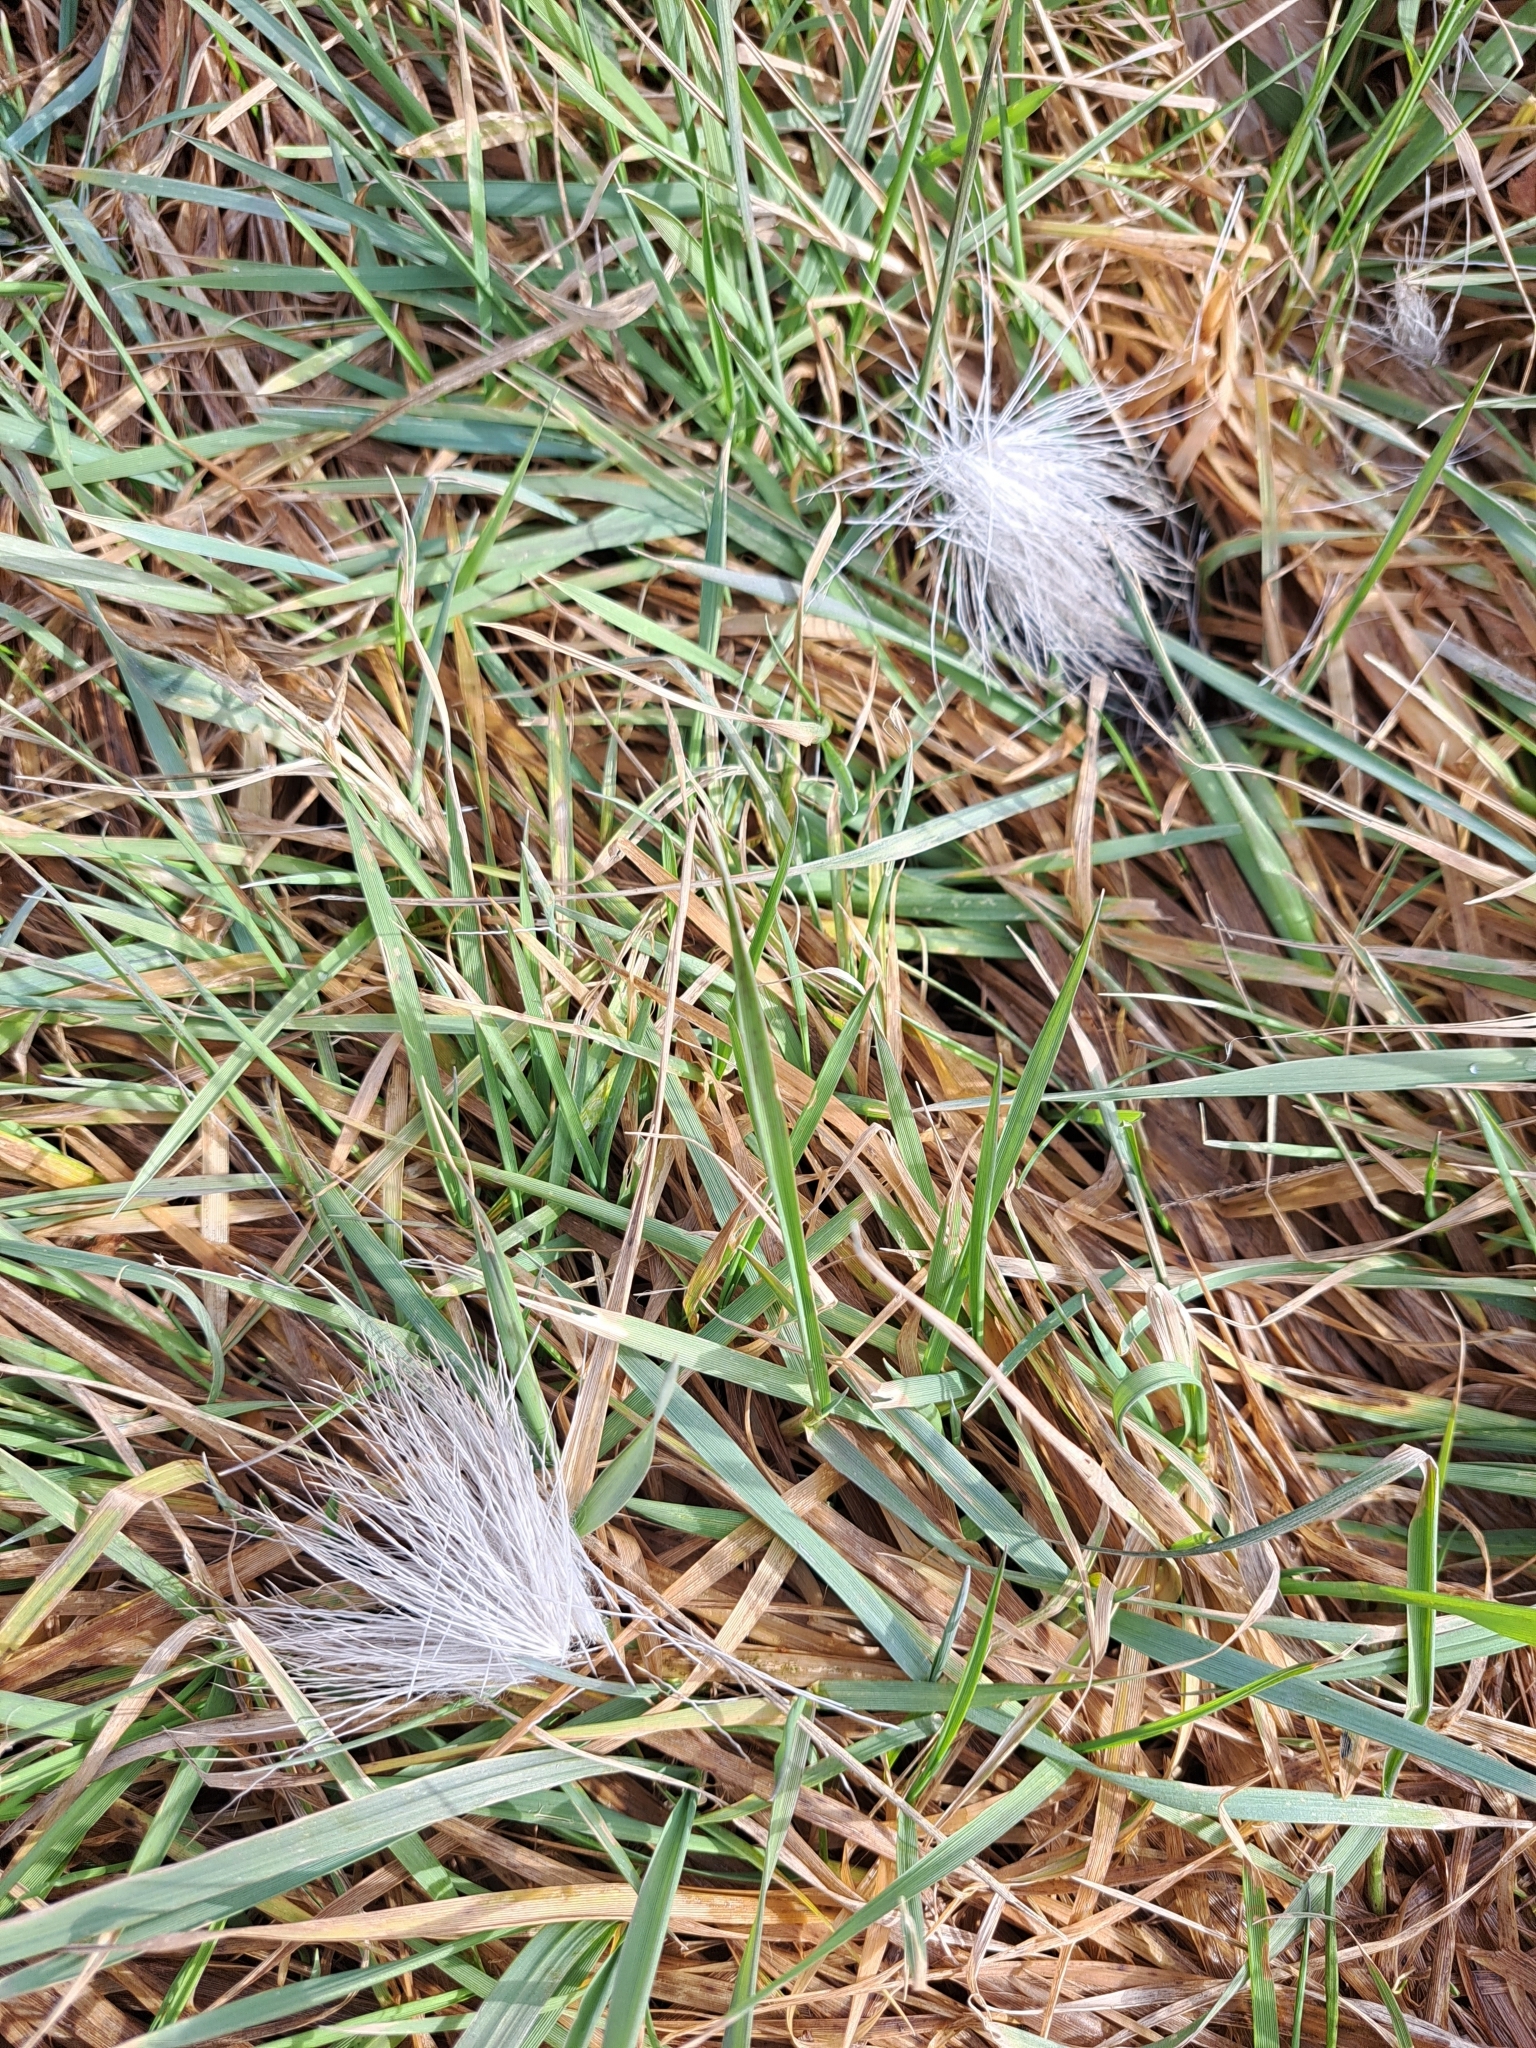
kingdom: Animalia
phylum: Chordata
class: Mammalia
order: Artiodactyla
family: Cervidae
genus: Odocoileus
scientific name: Odocoileus virginianus
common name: White-tailed deer
